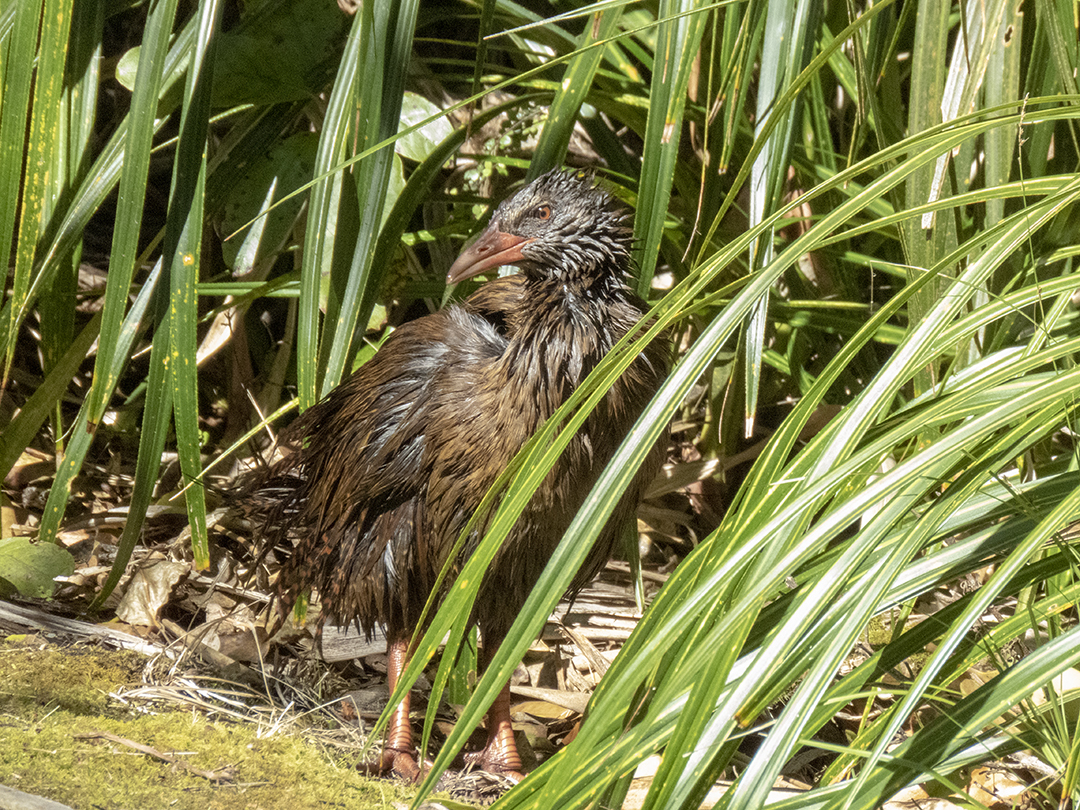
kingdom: Animalia
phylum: Chordata
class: Aves
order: Gruiformes
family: Rallidae
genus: Gallirallus
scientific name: Gallirallus australis
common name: Weka
